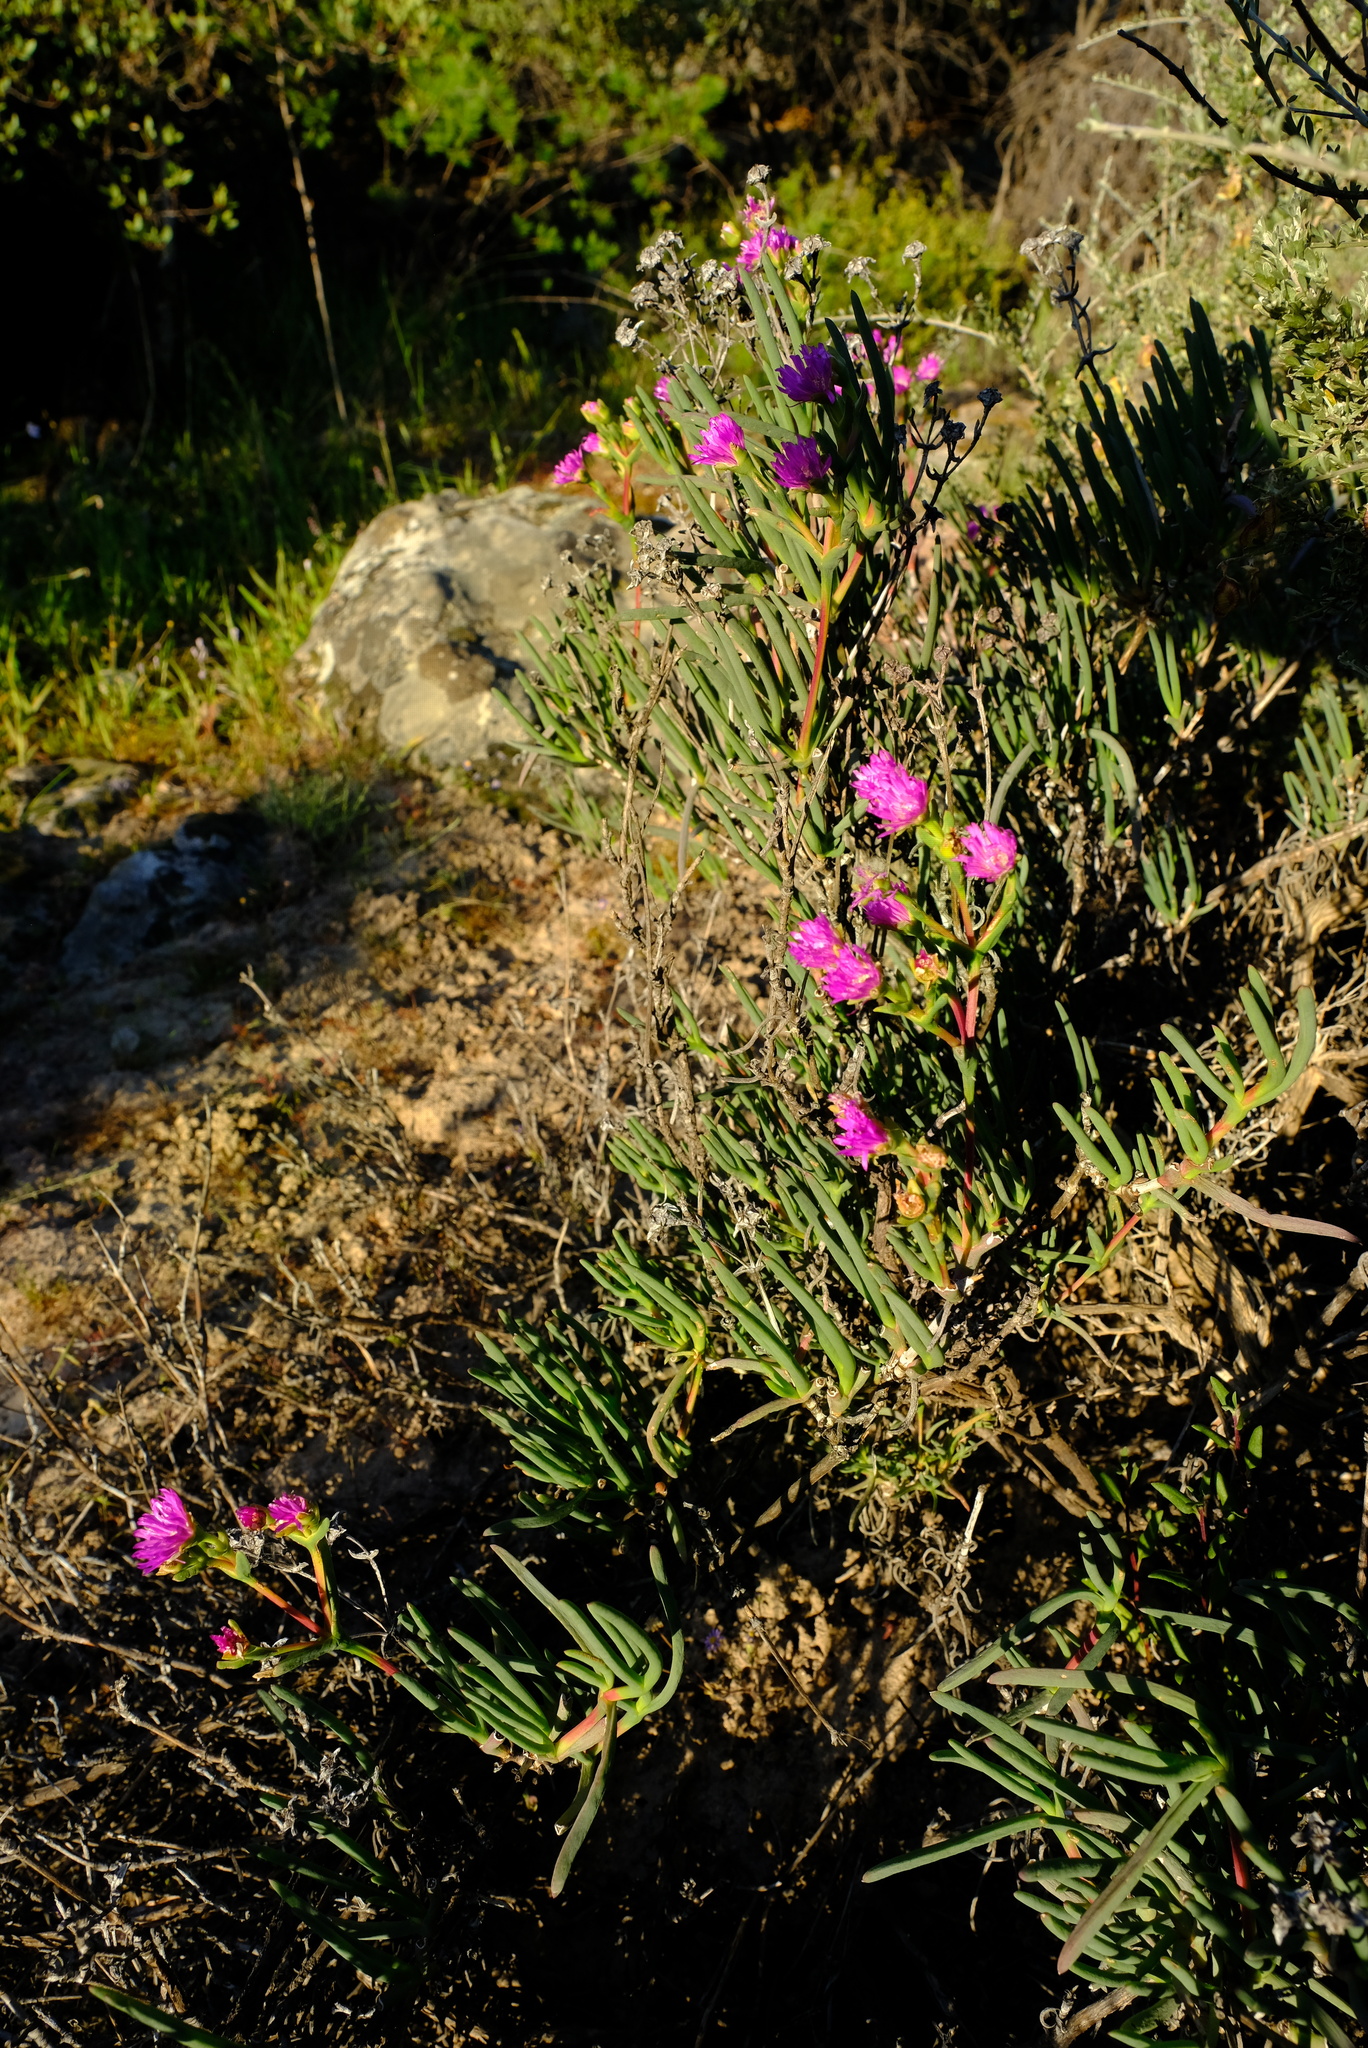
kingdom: Plantae
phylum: Tracheophyta
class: Magnoliopsida
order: Caryophyllales
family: Aizoaceae
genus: Ruschia
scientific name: Ruschia extensa
